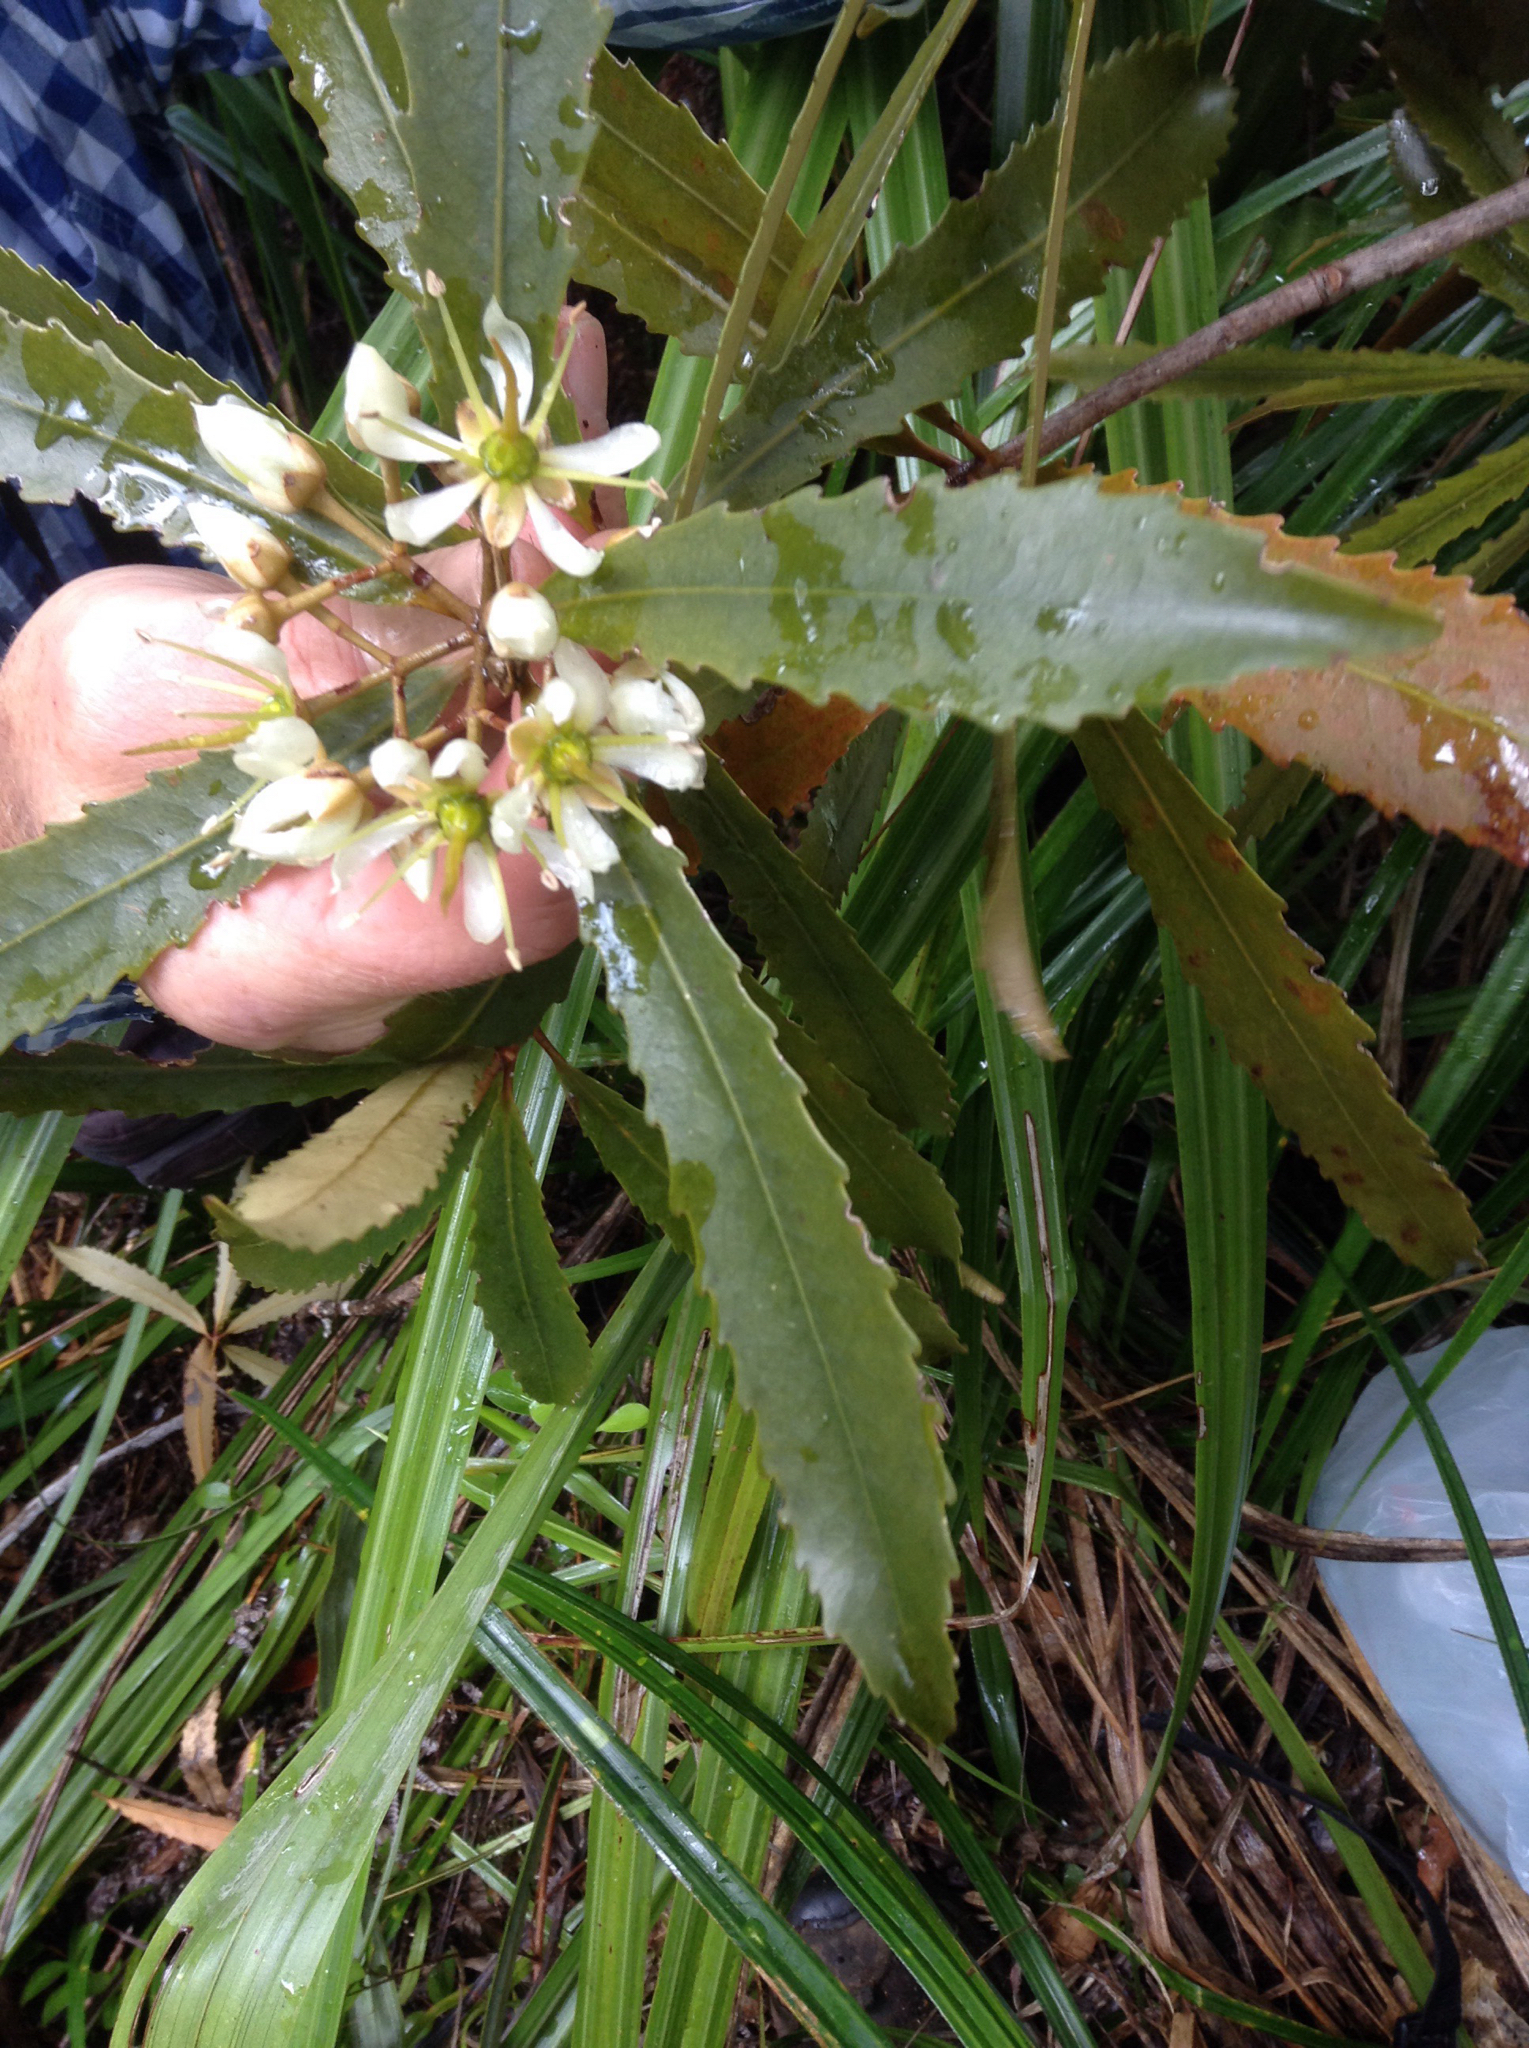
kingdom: Plantae
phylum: Tracheophyta
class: Magnoliopsida
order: Crossosomatales
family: Ixerbaceae
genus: Ixerba
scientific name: Ixerba brexioides
